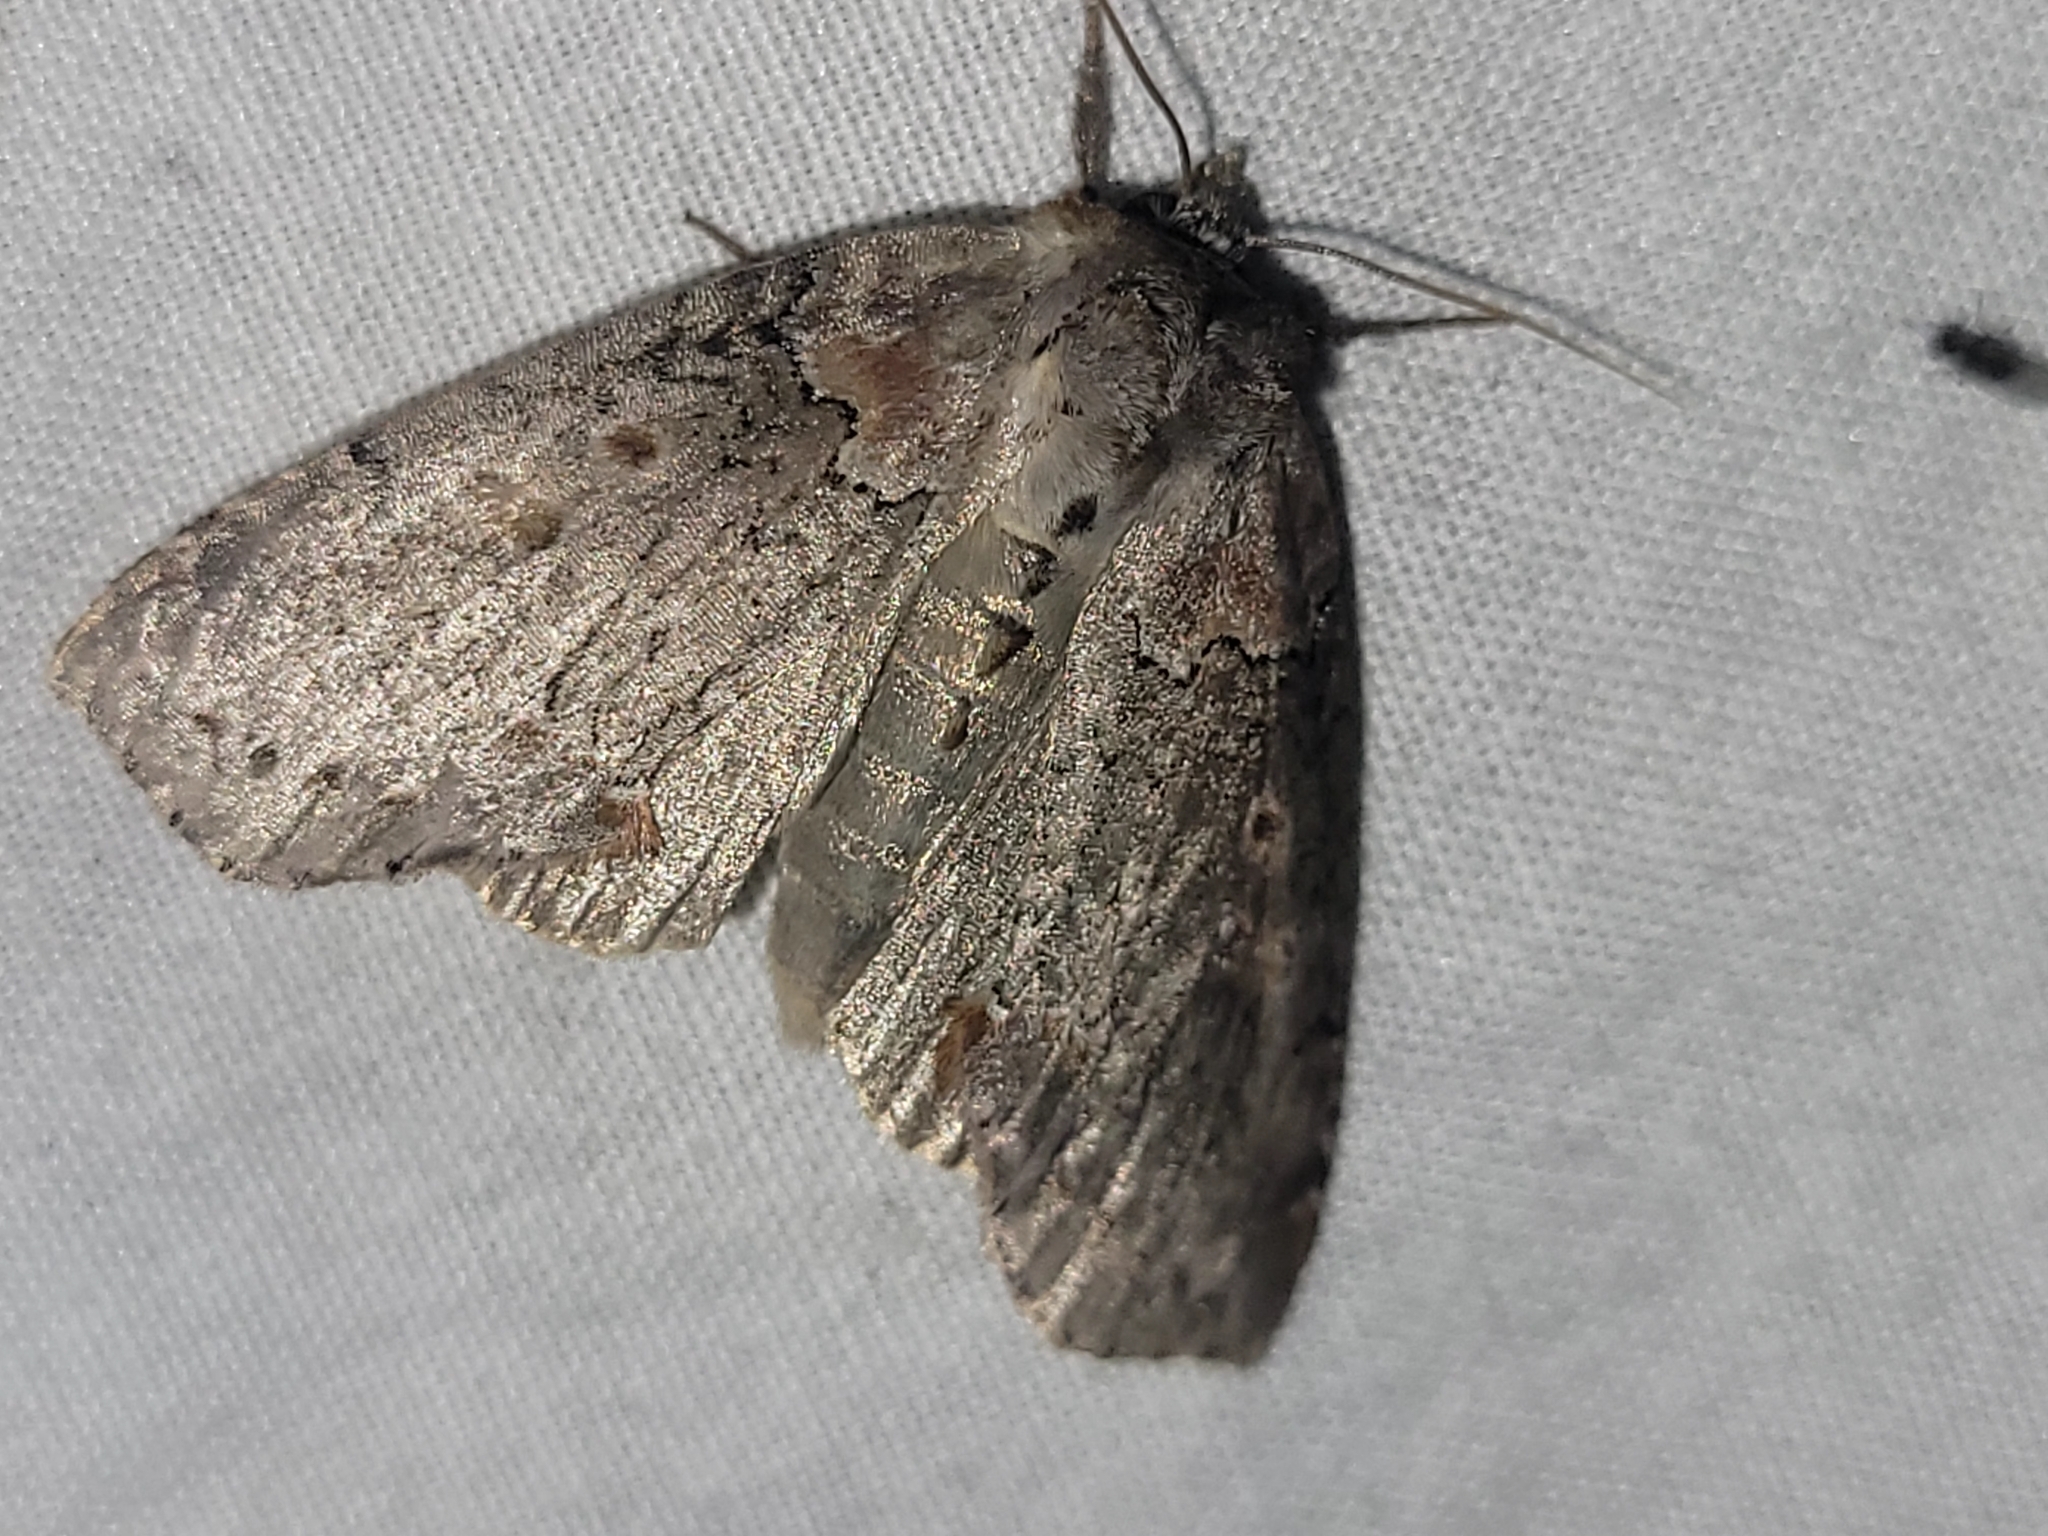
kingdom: Animalia
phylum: Arthropoda
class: Insecta
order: Lepidoptera
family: Drepanidae
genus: Pseudothyatira
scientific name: Pseudothyatira cymatophoroides
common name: Tufted thyatirid moth
